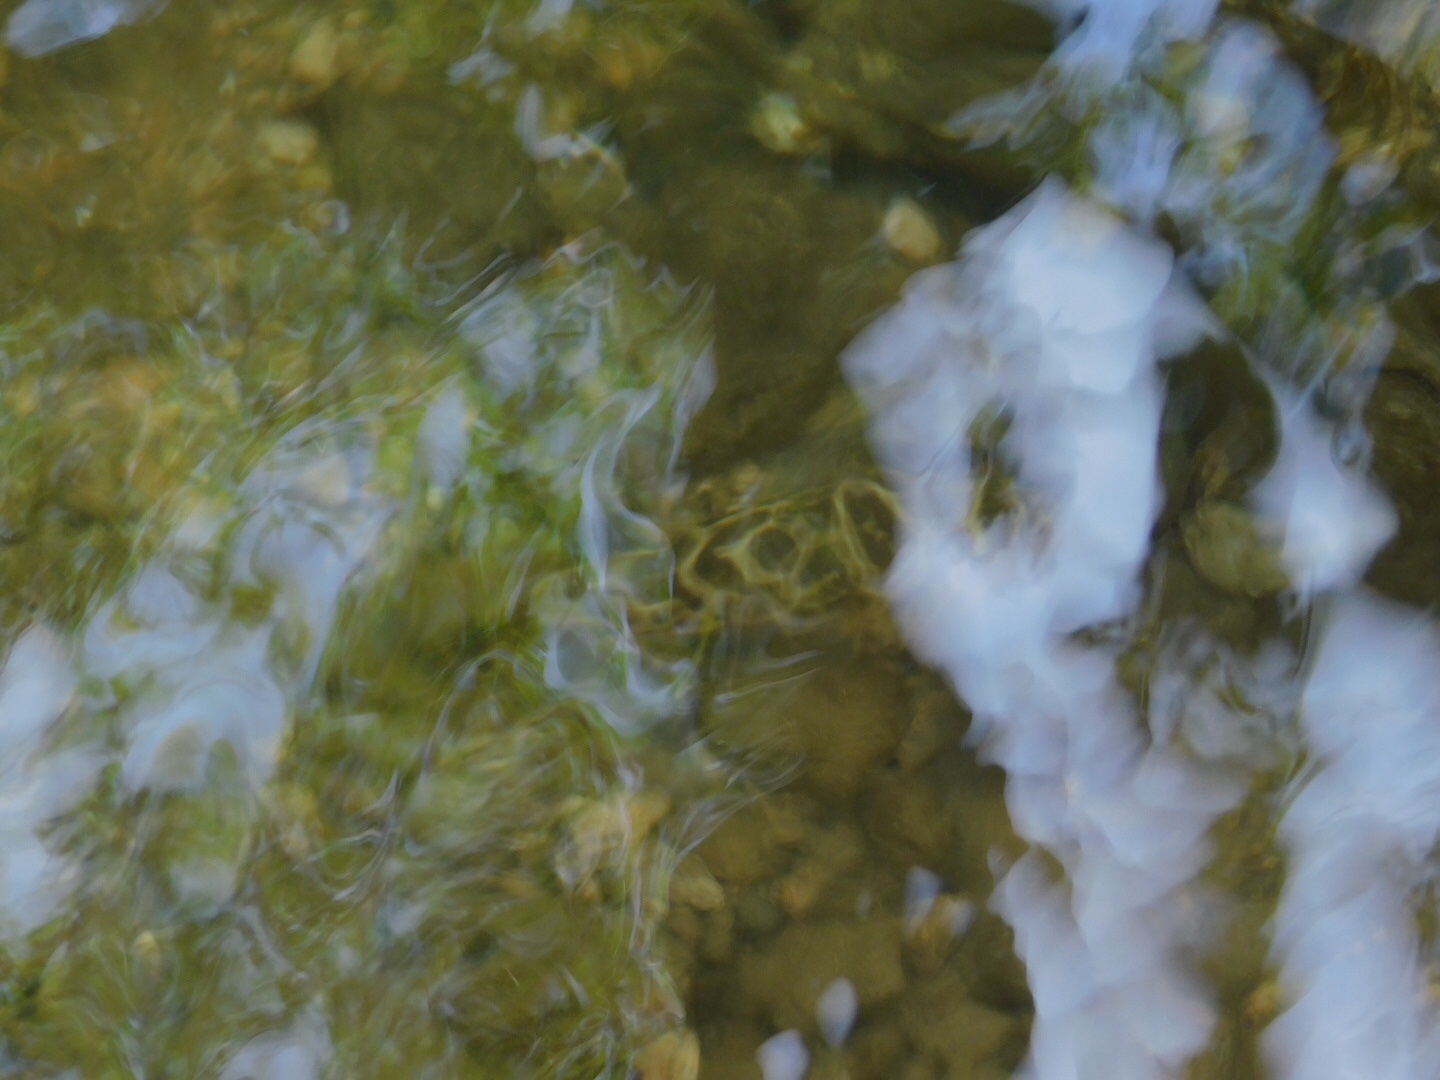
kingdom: Animalia
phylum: Chordata
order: Tetraodontiformes
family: Tetraodontidae
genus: Sphoeroides
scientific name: Sphoeroides testudineus
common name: Checkered puffer
